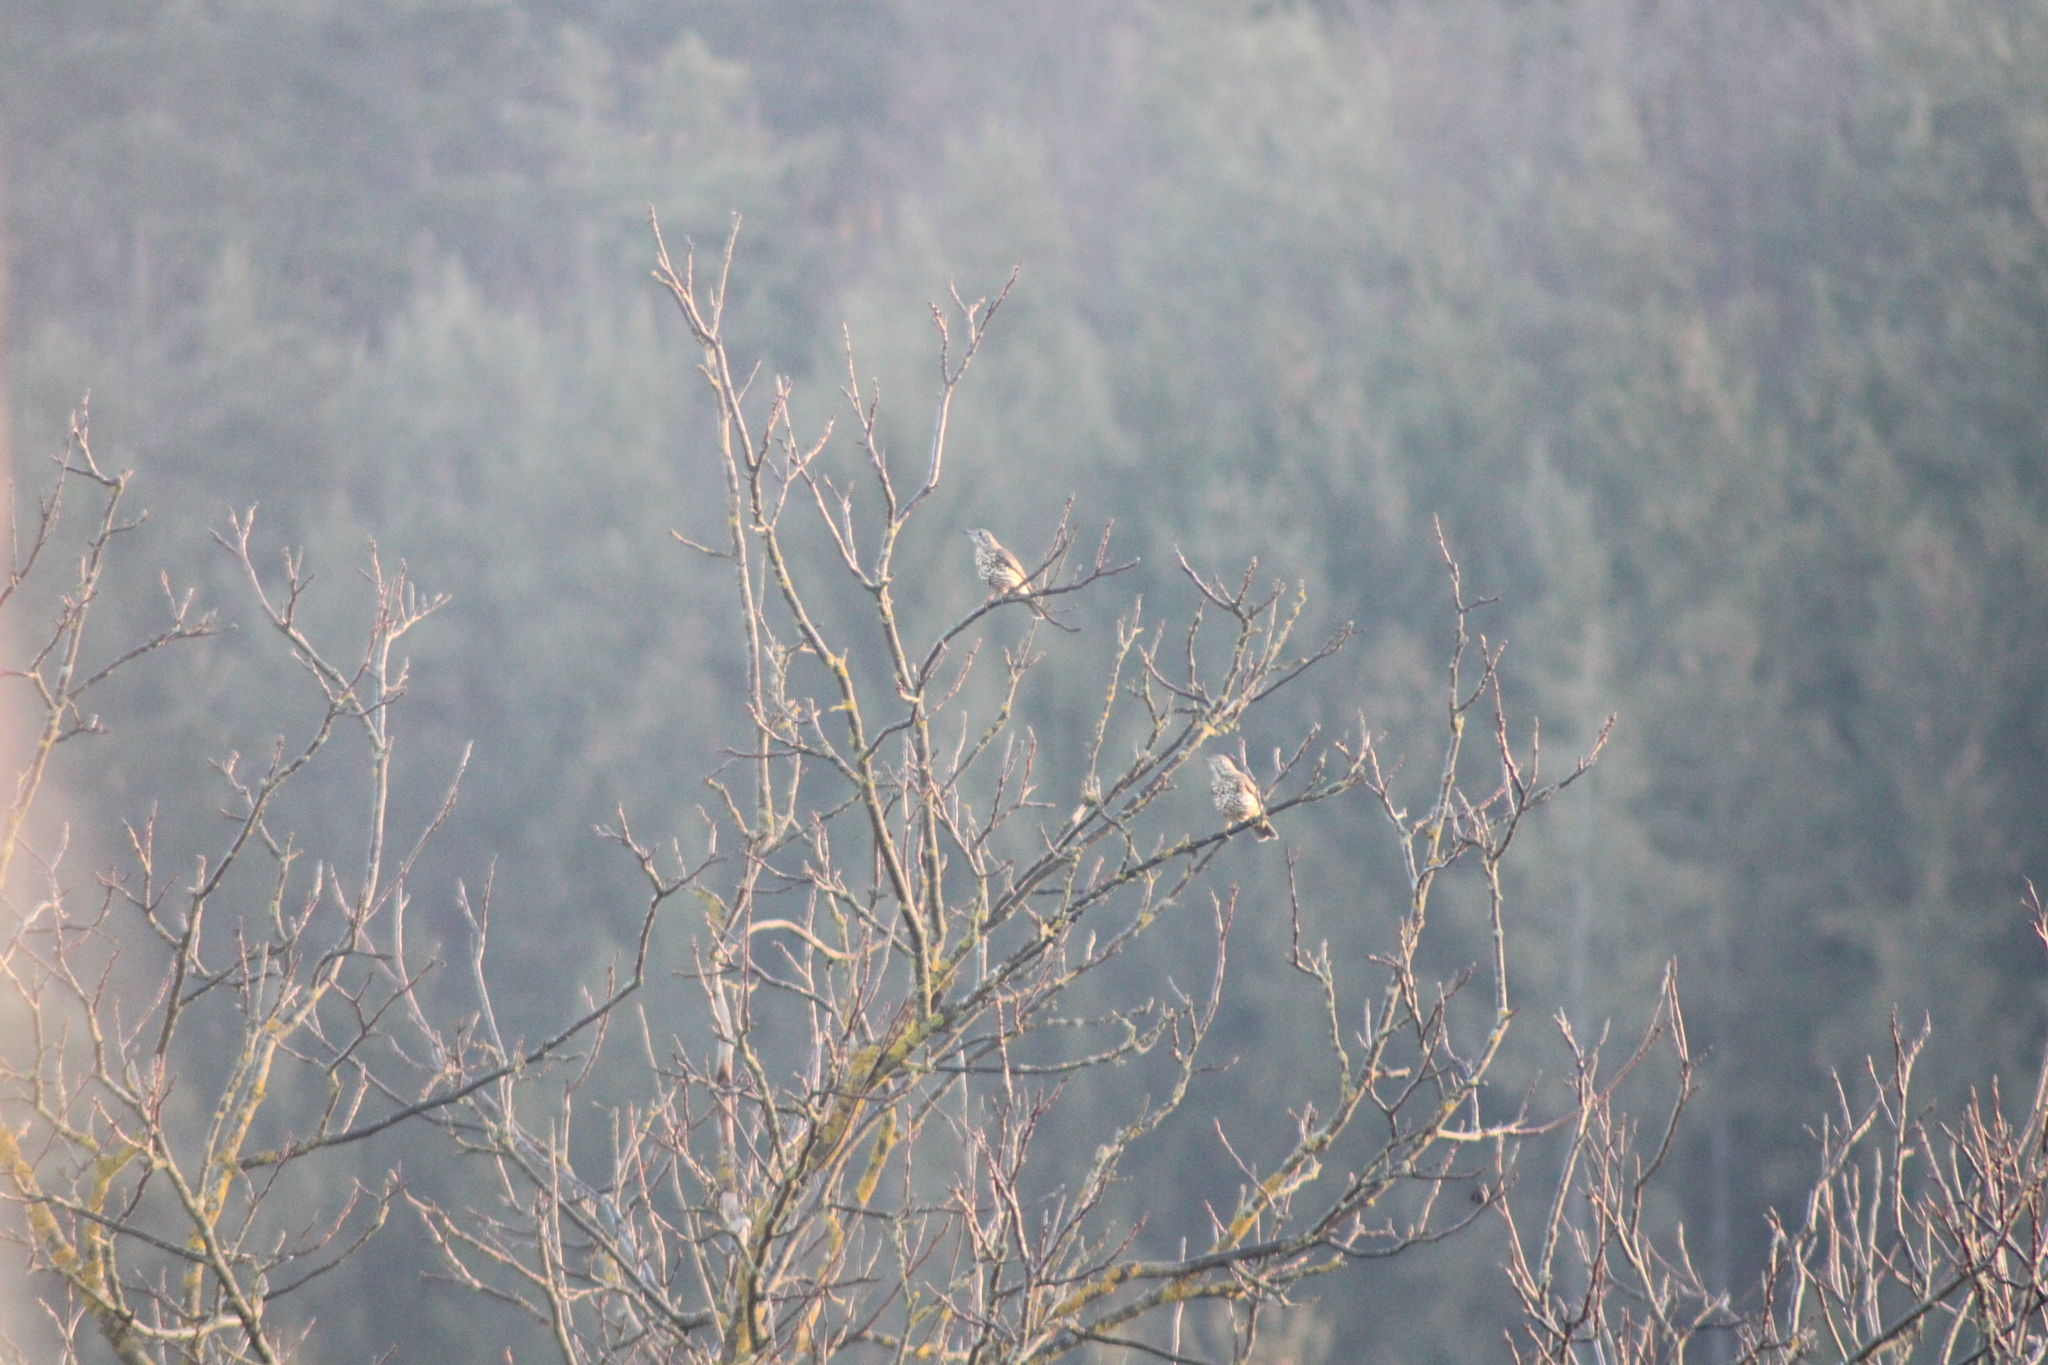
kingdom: Animalia
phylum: Chordata
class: Aves
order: Passeriformes
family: Turdidae
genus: Turdus
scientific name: Turdus viscivorus
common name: Mistle thrush
